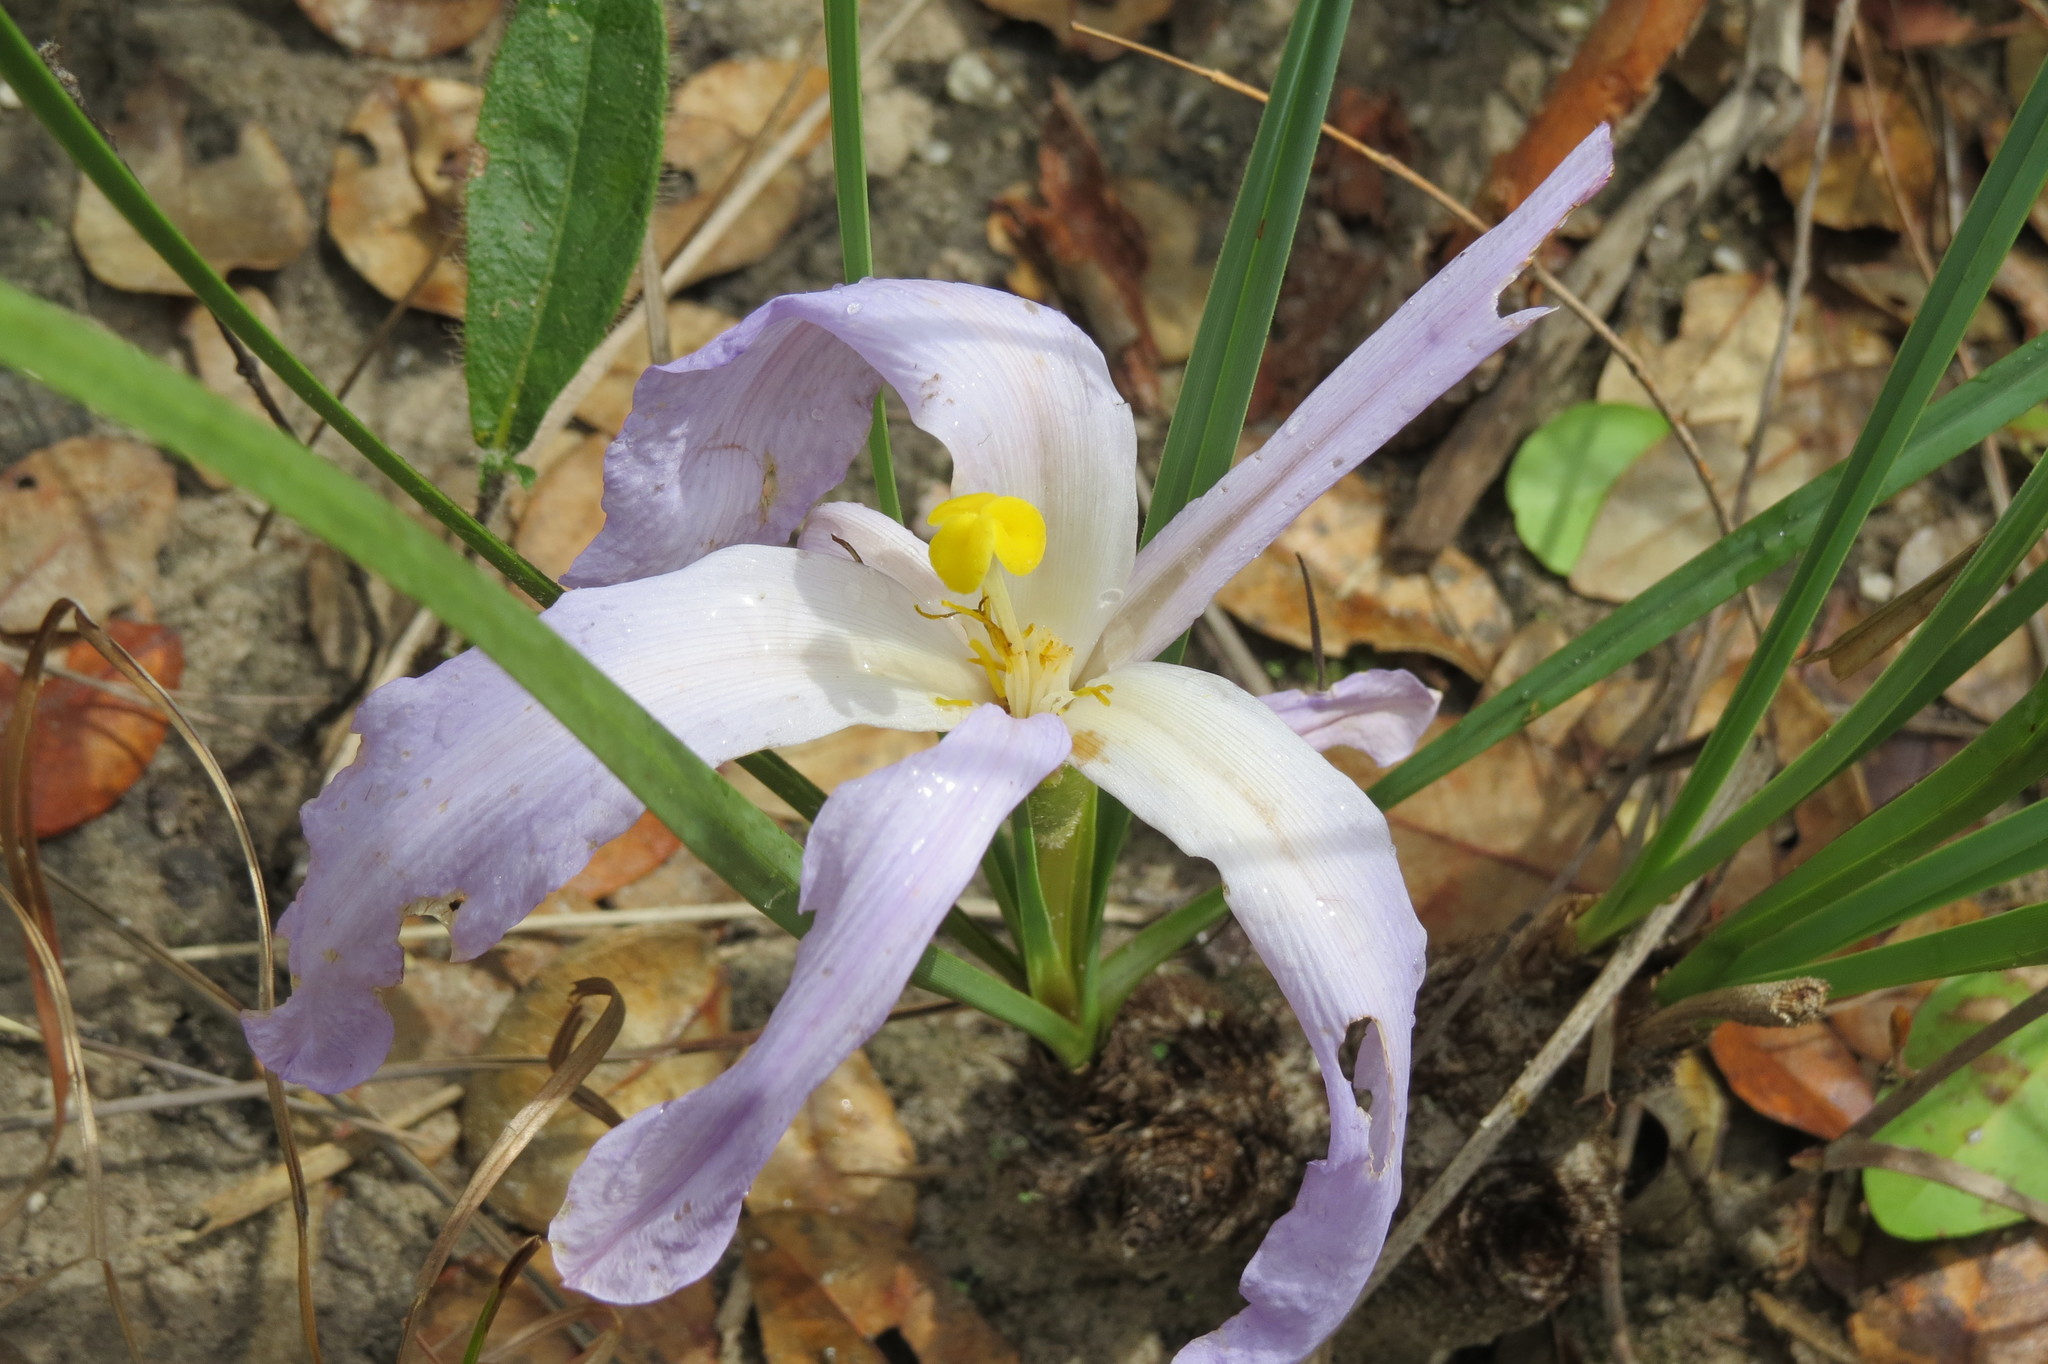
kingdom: Plantae
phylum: Tracheophyta
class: Liliopsida
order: Pandanales
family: Velloziaceae
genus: Vellozia
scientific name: Vellozia pumila
